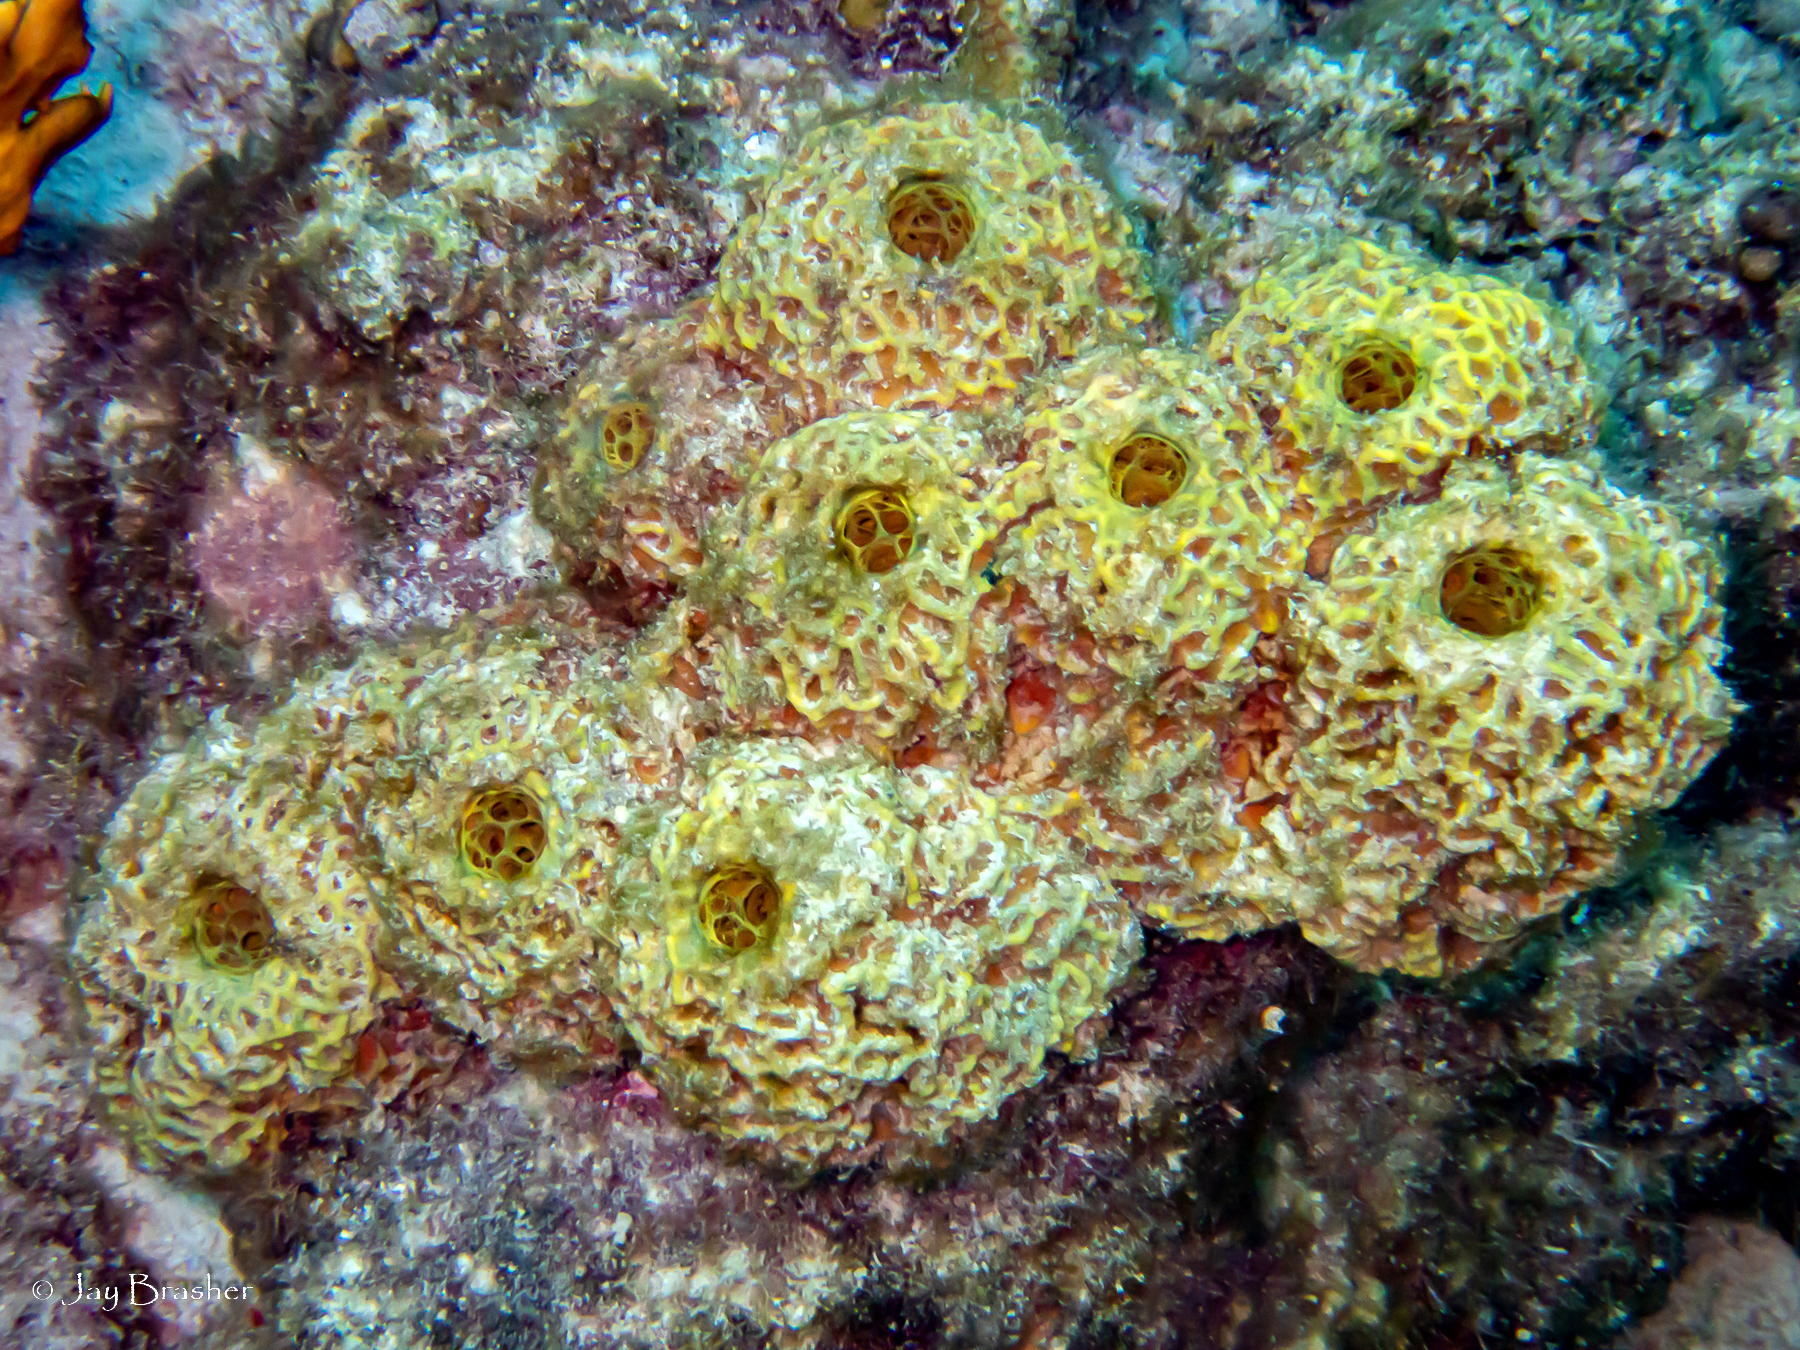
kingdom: Animalia
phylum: Porifera
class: Demospongiae
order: Verongiida
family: Aplysinidae
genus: Verongula
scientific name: Verongula rigida
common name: Pitted sponge
